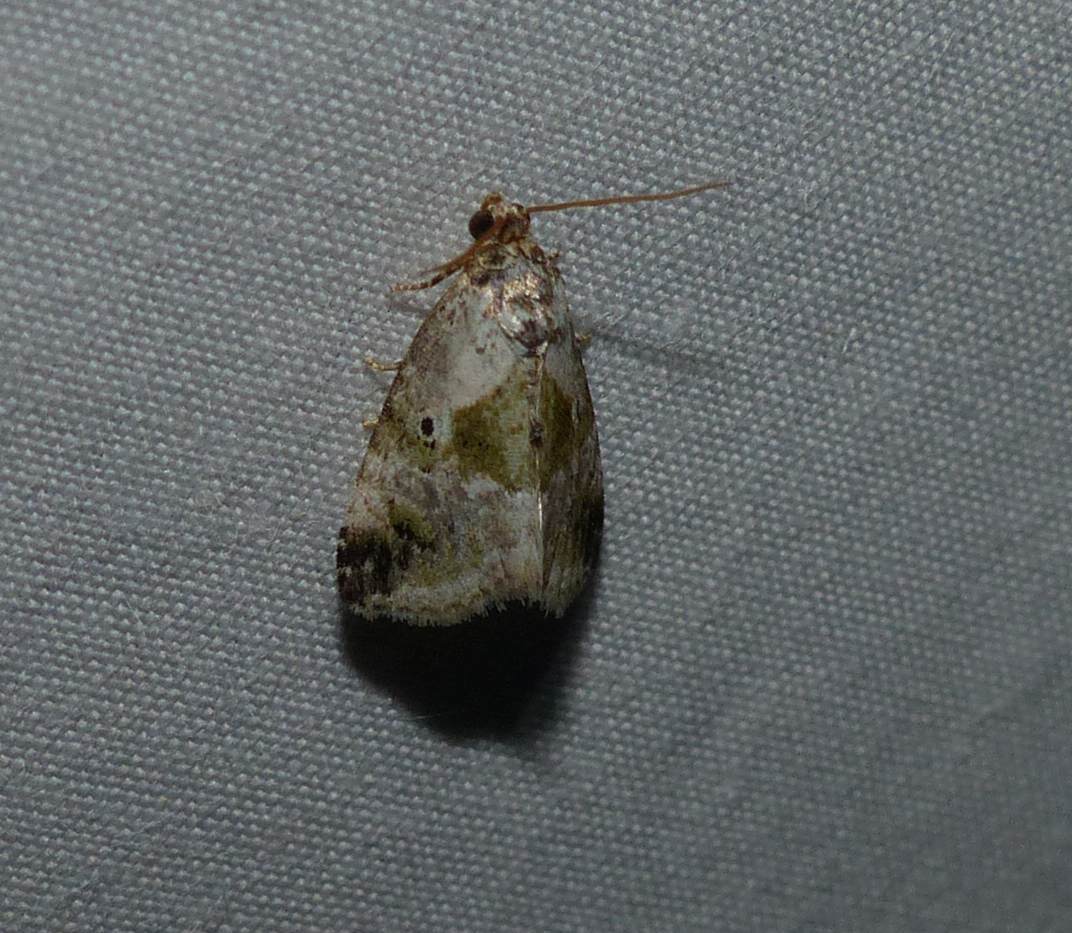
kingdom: Animalia
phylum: Arthropoda
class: Insecta
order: Lepidoptera
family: Noctuidae
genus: Maliattha
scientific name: Maliattha synochitis
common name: Black-dotted glyph
